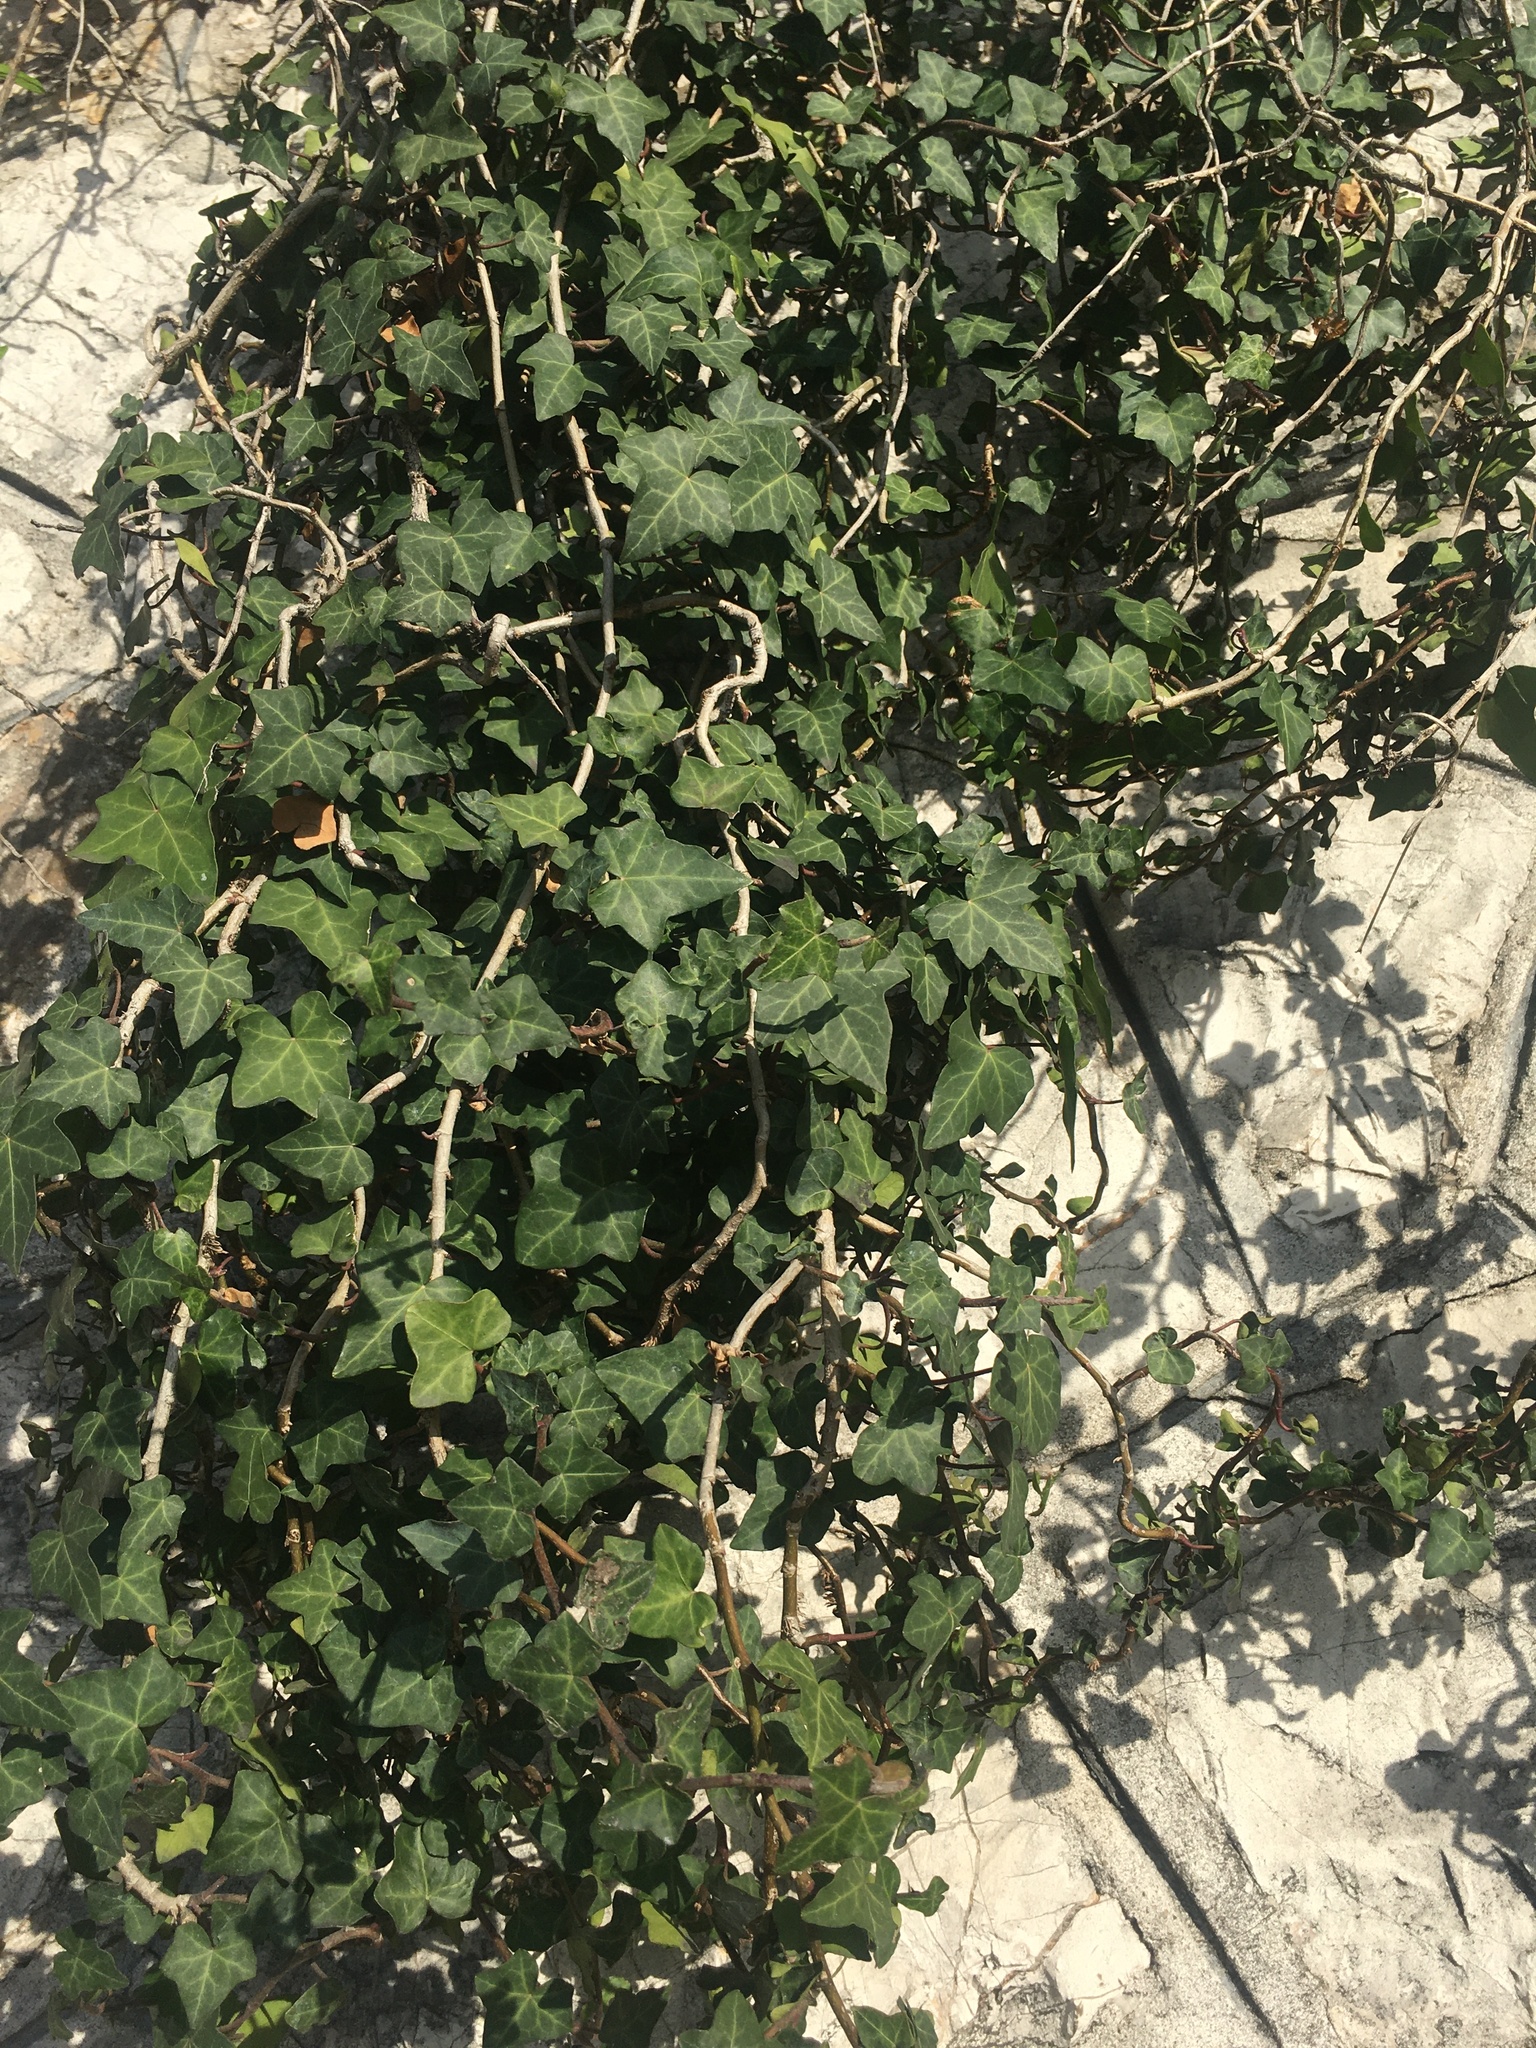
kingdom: Plantae
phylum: Tracheophyta
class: Magnoliopsida
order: Apiales
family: Araliaceae
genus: Hedera
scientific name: Hedera helix
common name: Ivy
